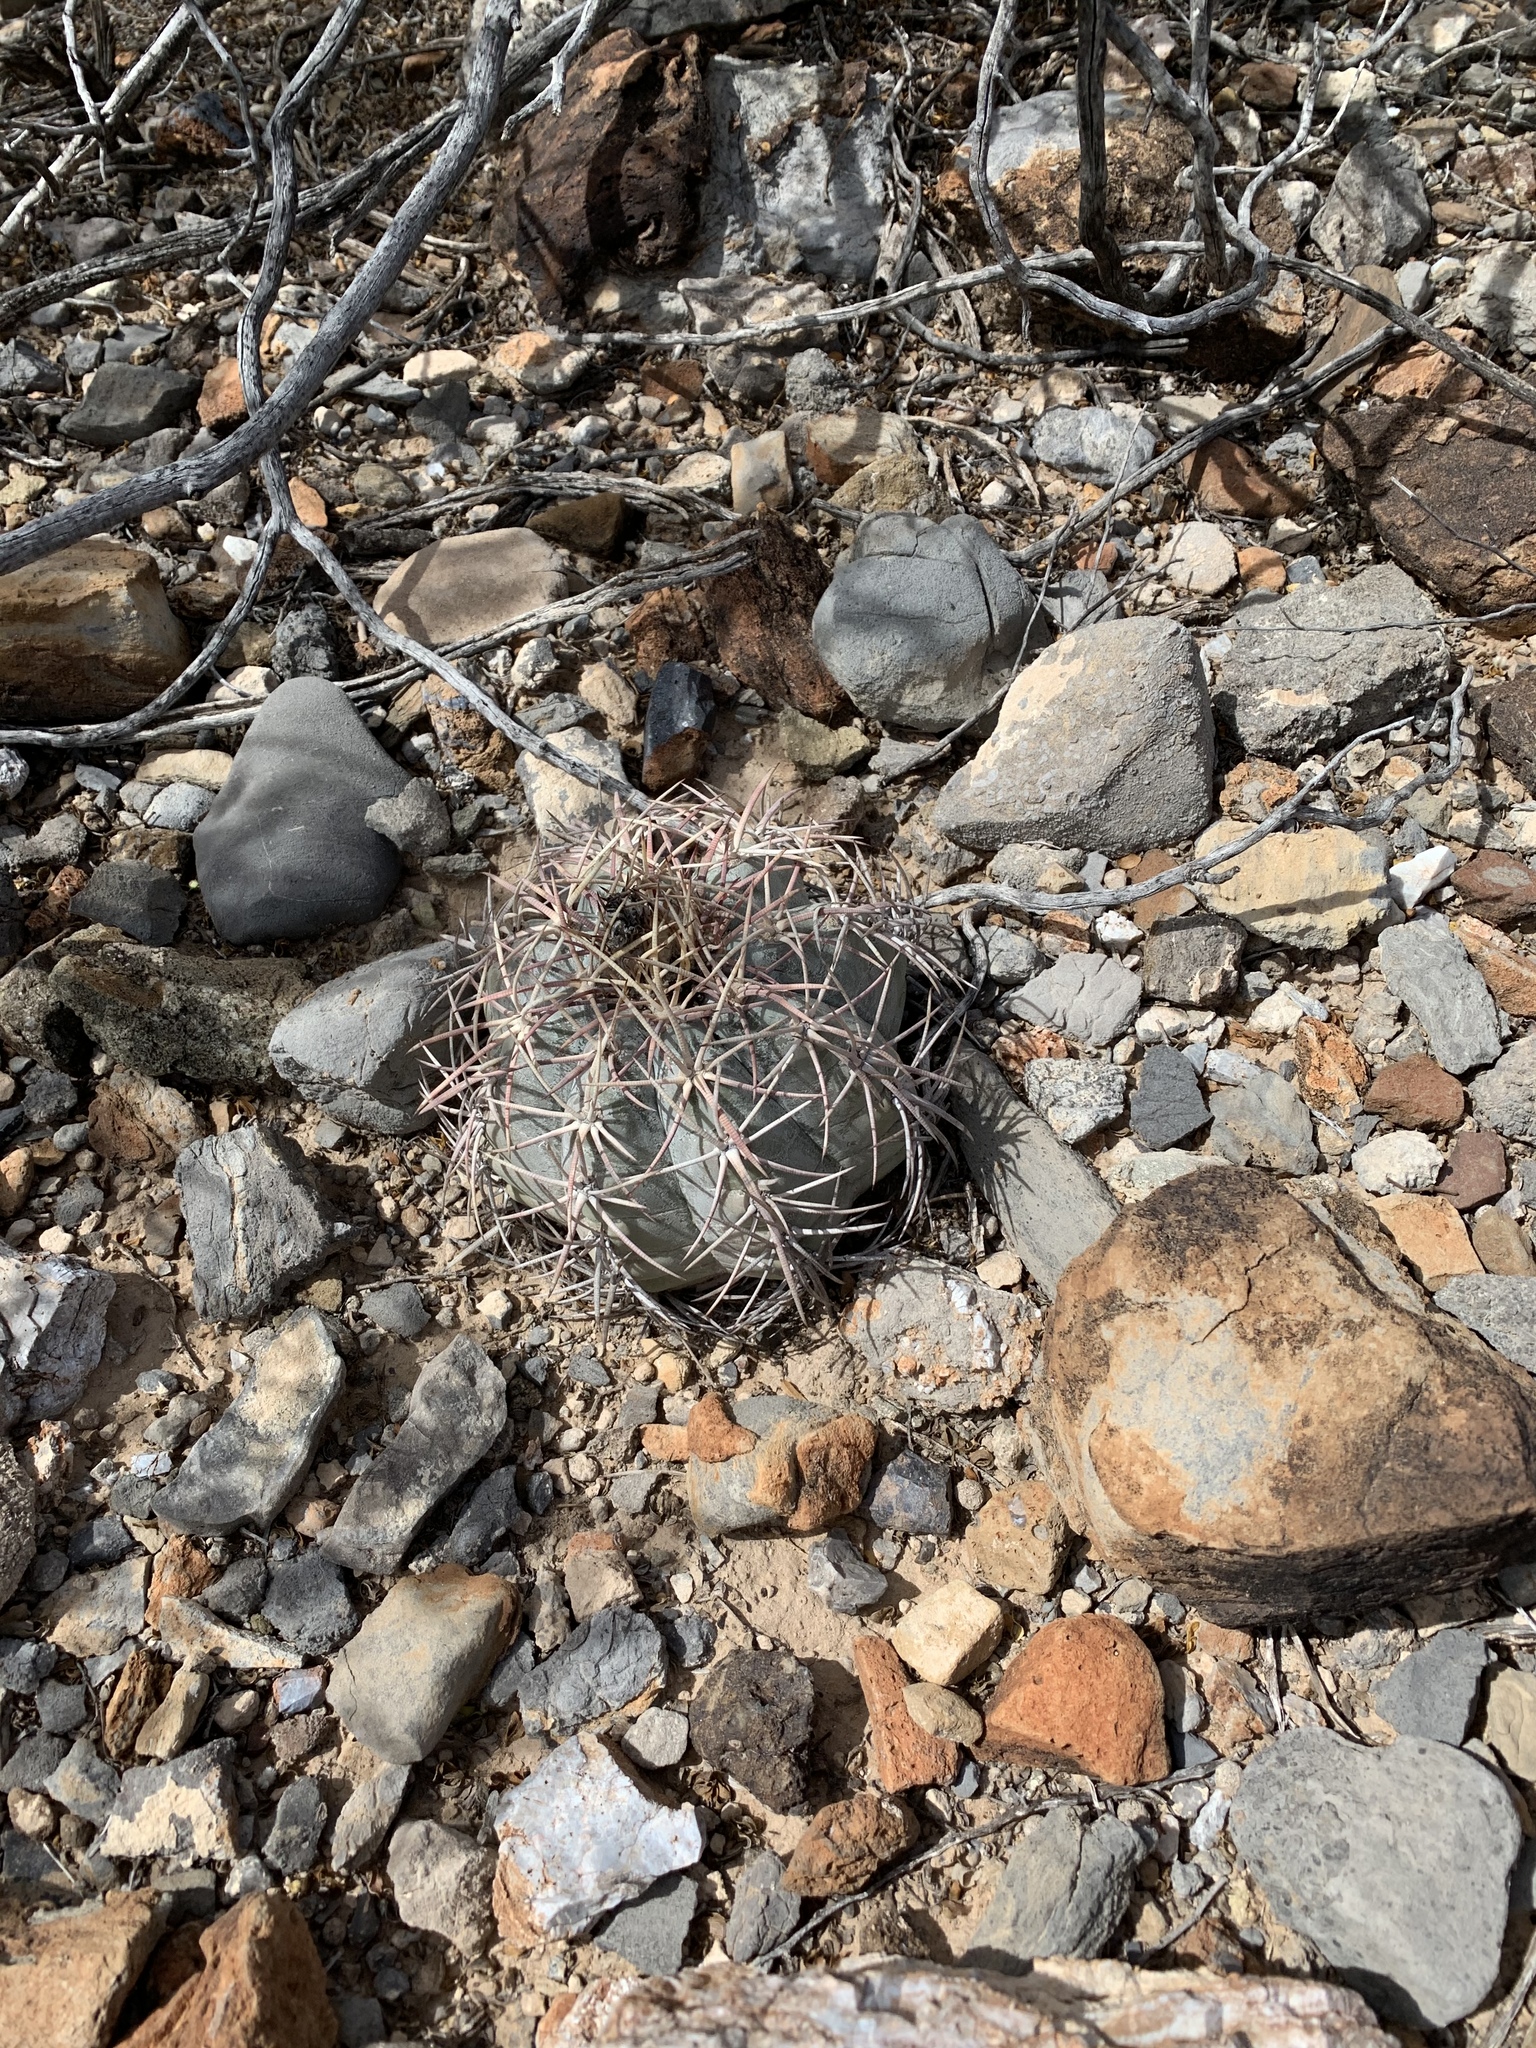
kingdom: Plantae
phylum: Tracheophyta
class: Magnoliopsida
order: Caryophyllales
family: Cactaceae
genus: Echinocactus
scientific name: Echinocactus horizonthalonius
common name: Devilshead
